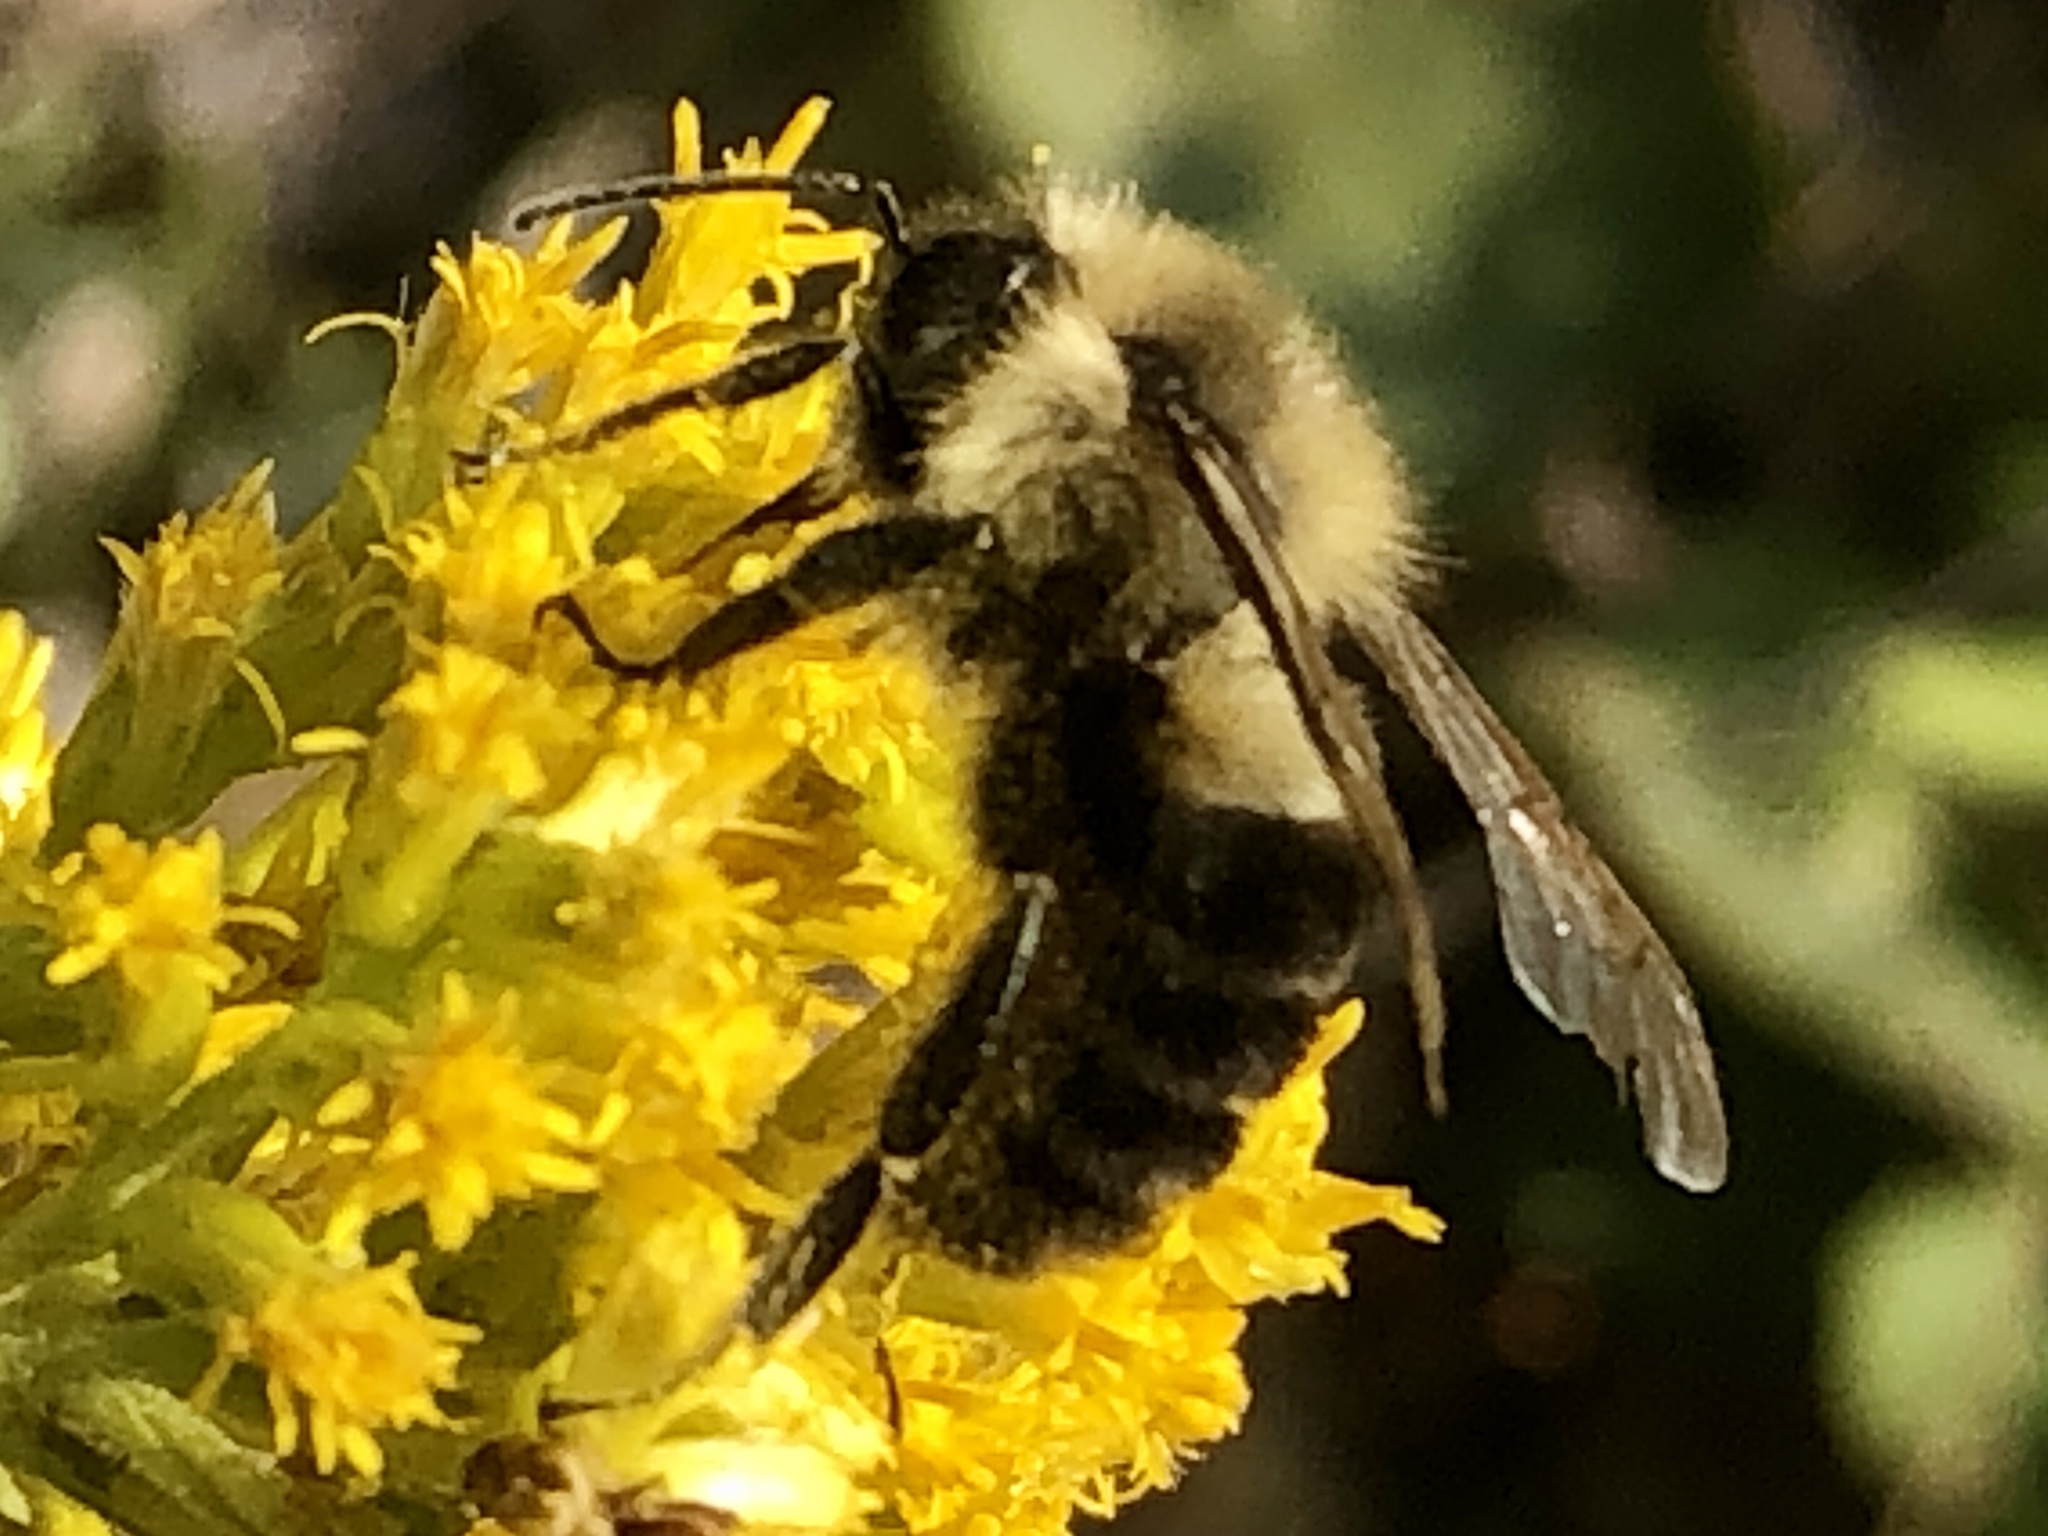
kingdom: Animalia
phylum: Arthropoda
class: Insecta
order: Hymenoptera
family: Apidae
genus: Bombus
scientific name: Bombus impatiens
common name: Common eastern bumble bee
